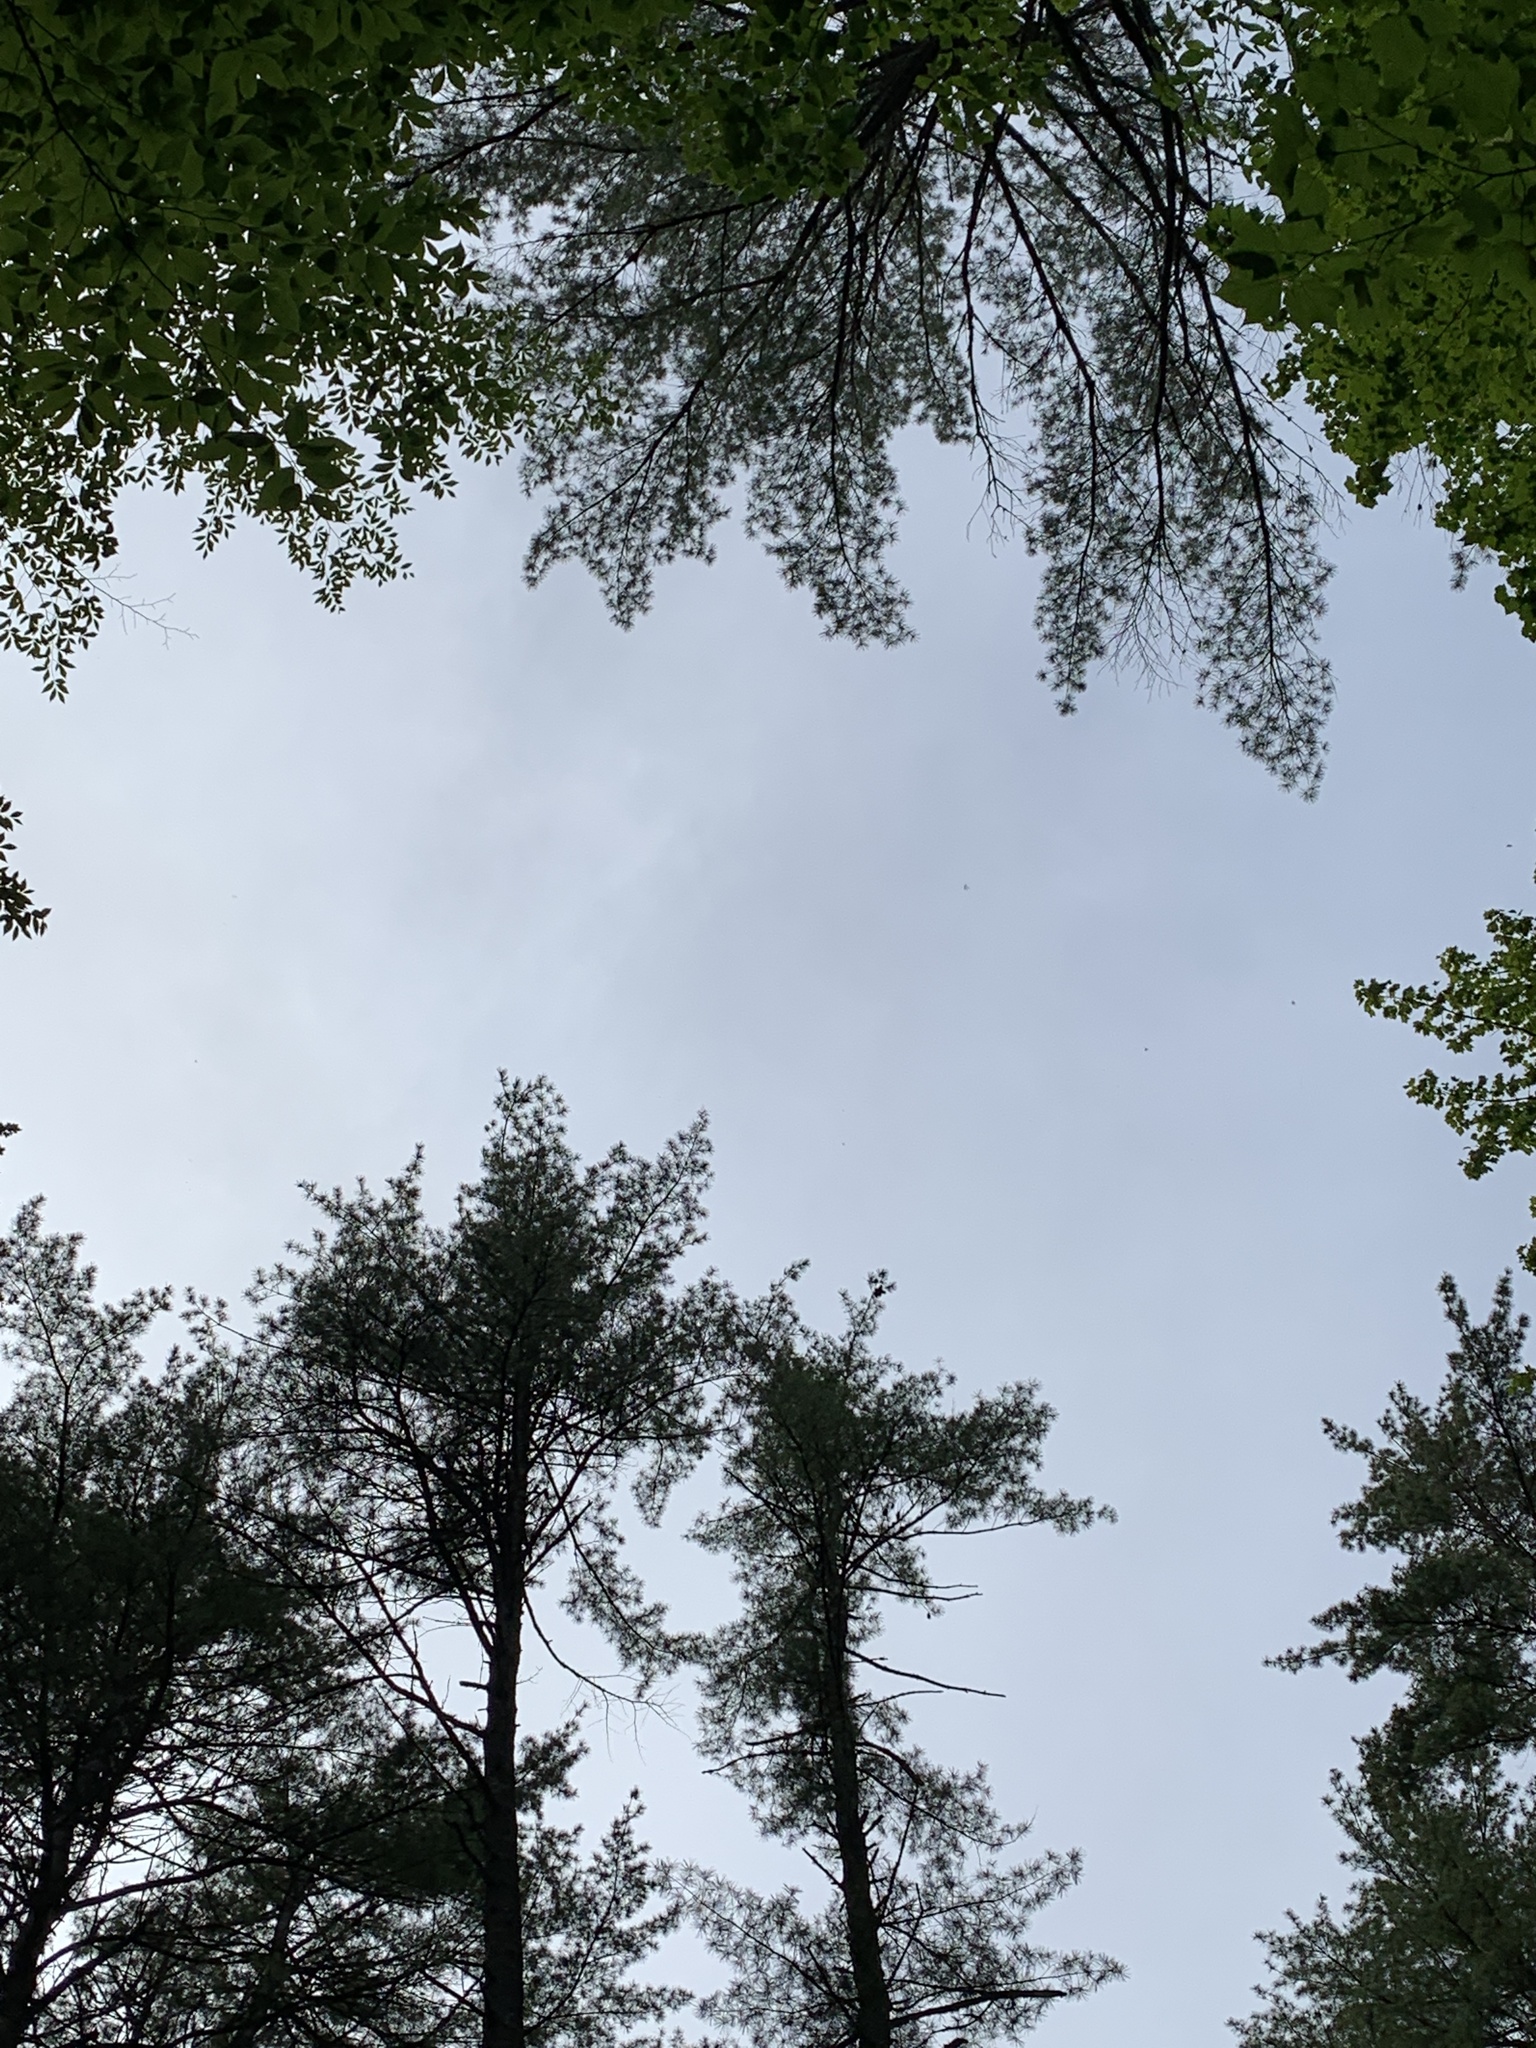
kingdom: Plantae
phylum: Tracheophyta
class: Pinopsida
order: Pinales
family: Pinaceae
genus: Pinus
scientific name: Pinus strobus
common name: Weymouth pine
